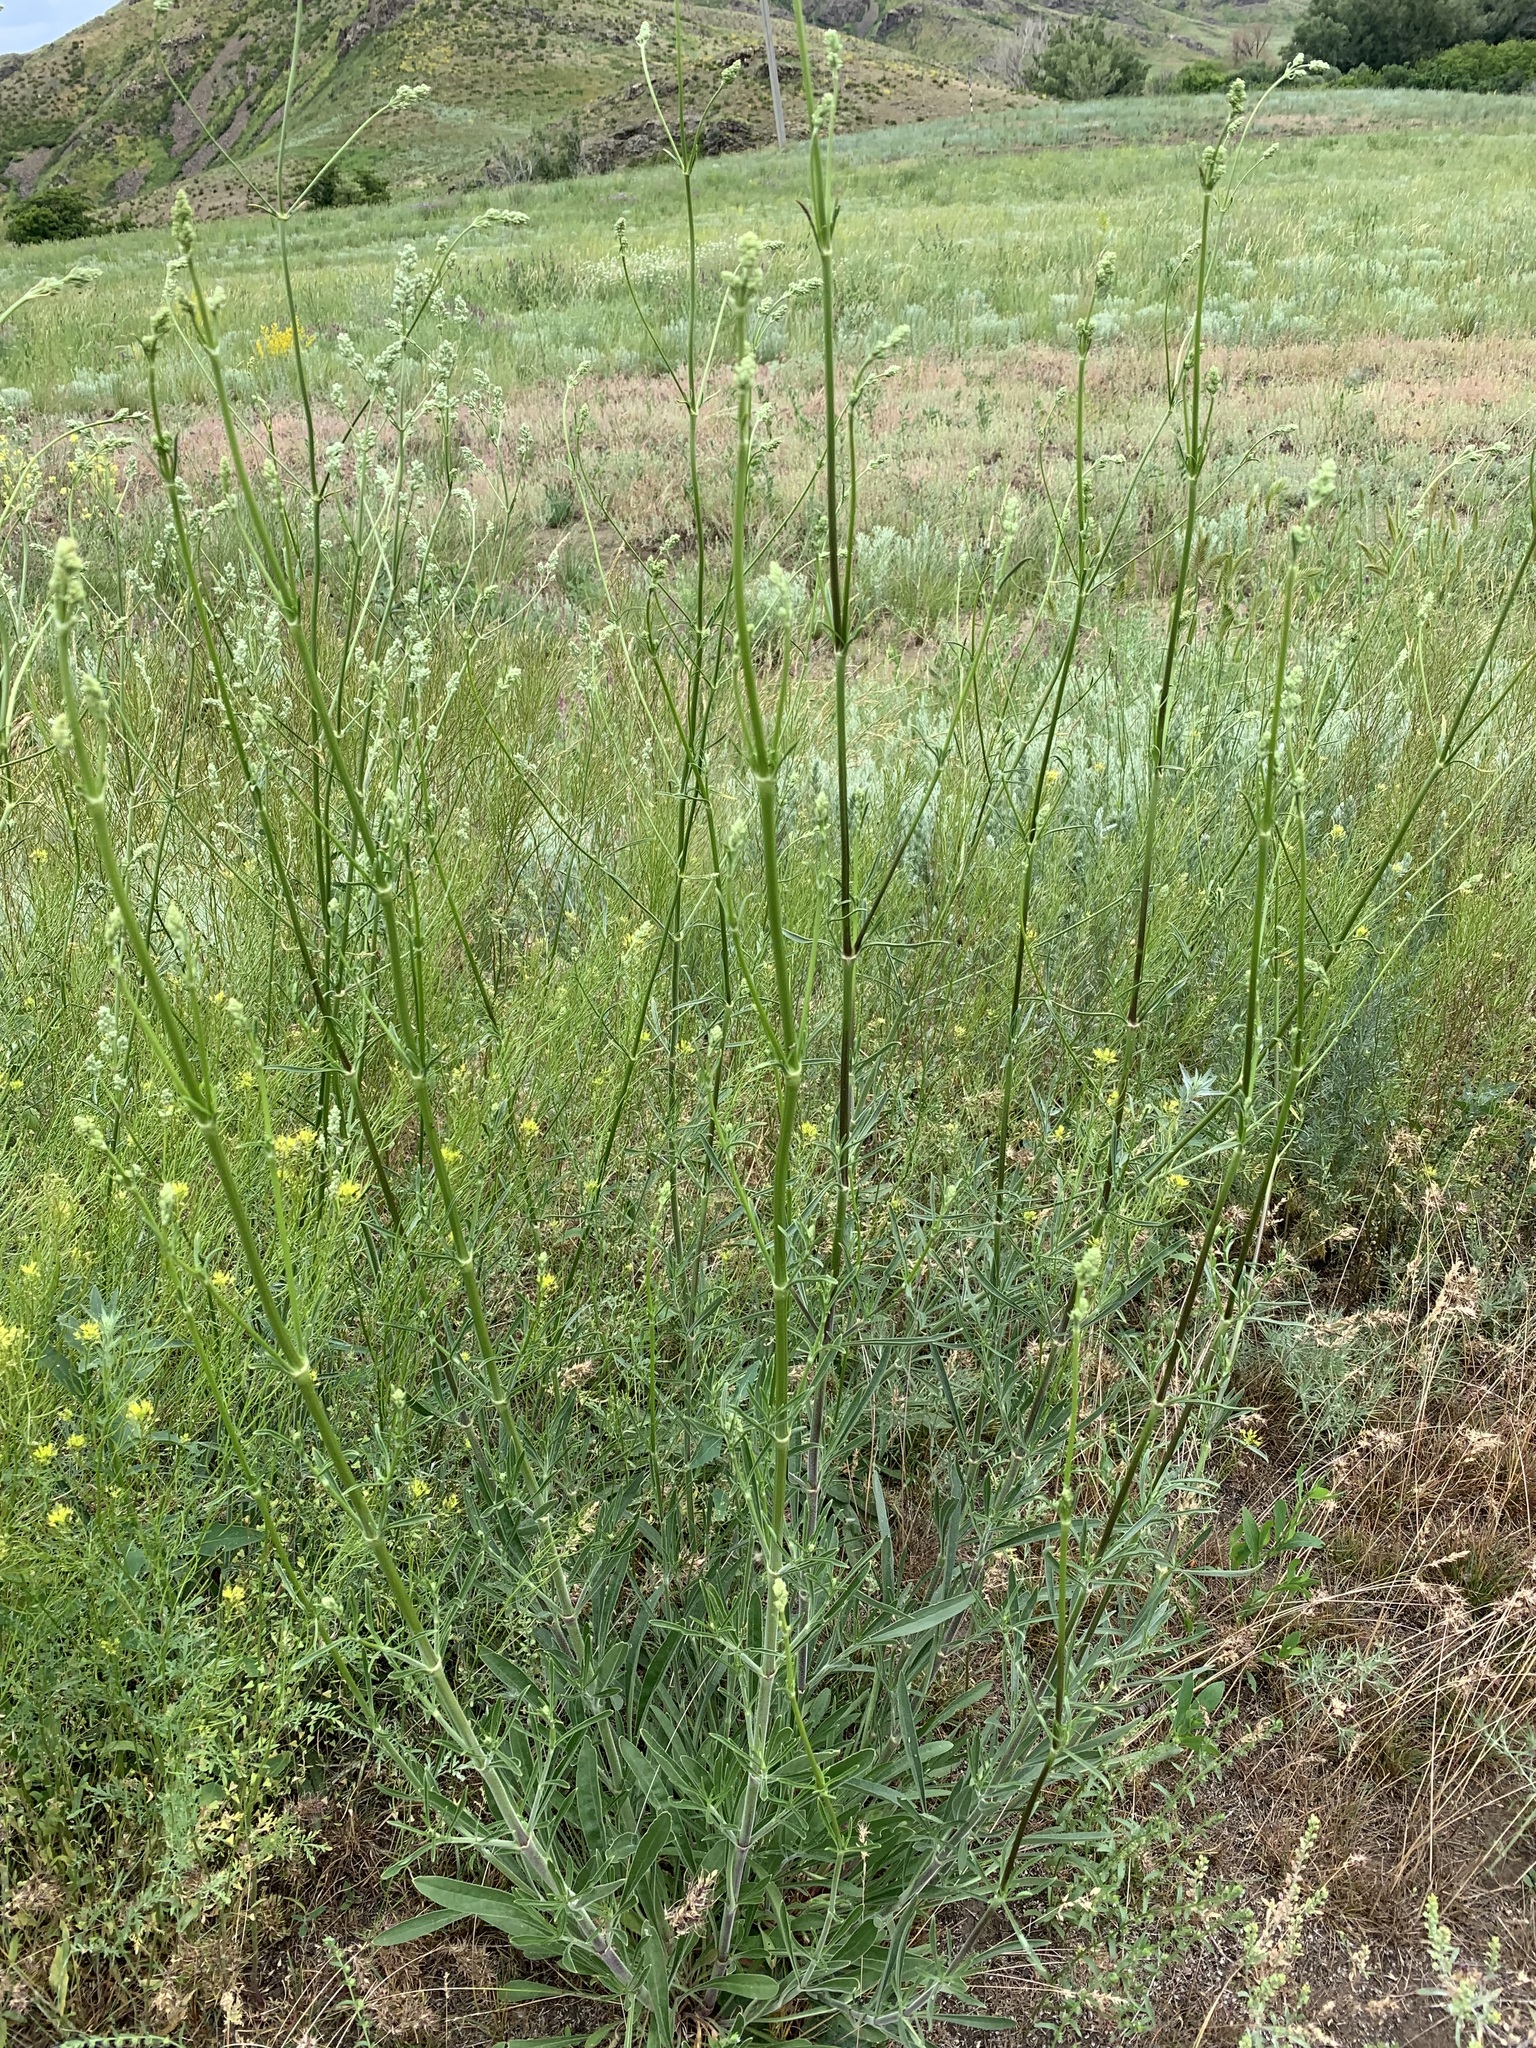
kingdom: Plantae
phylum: Tracheophyta
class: Magnoliopsida
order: Caryophyllales
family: Caryophyllaceae
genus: Silene
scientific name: Silene wolgensis
